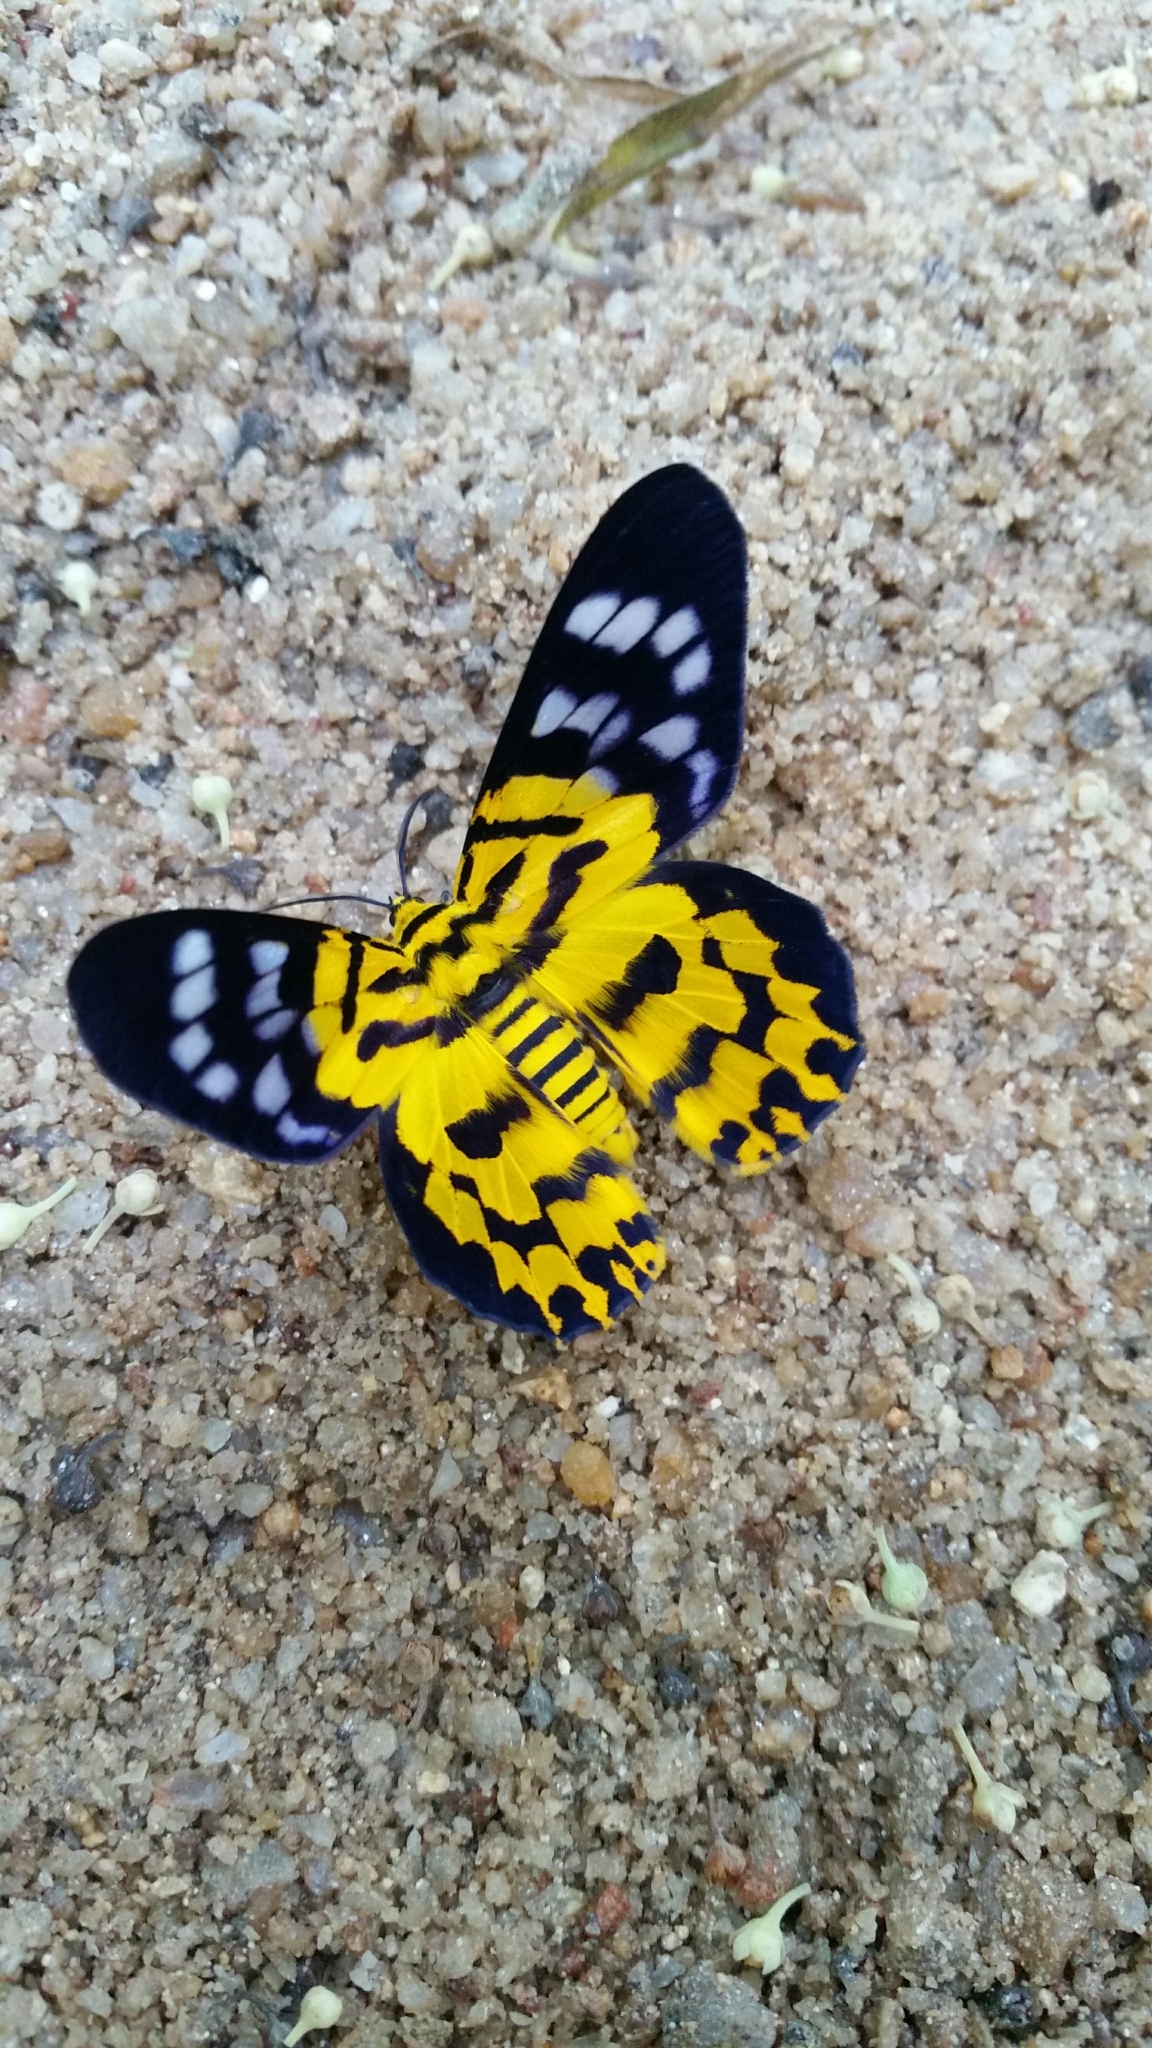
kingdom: Animalia
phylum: Arthropoda
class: Insecta
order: Lepidoptera
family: Geometridae
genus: Dysphania
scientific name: Dysphania militaris
